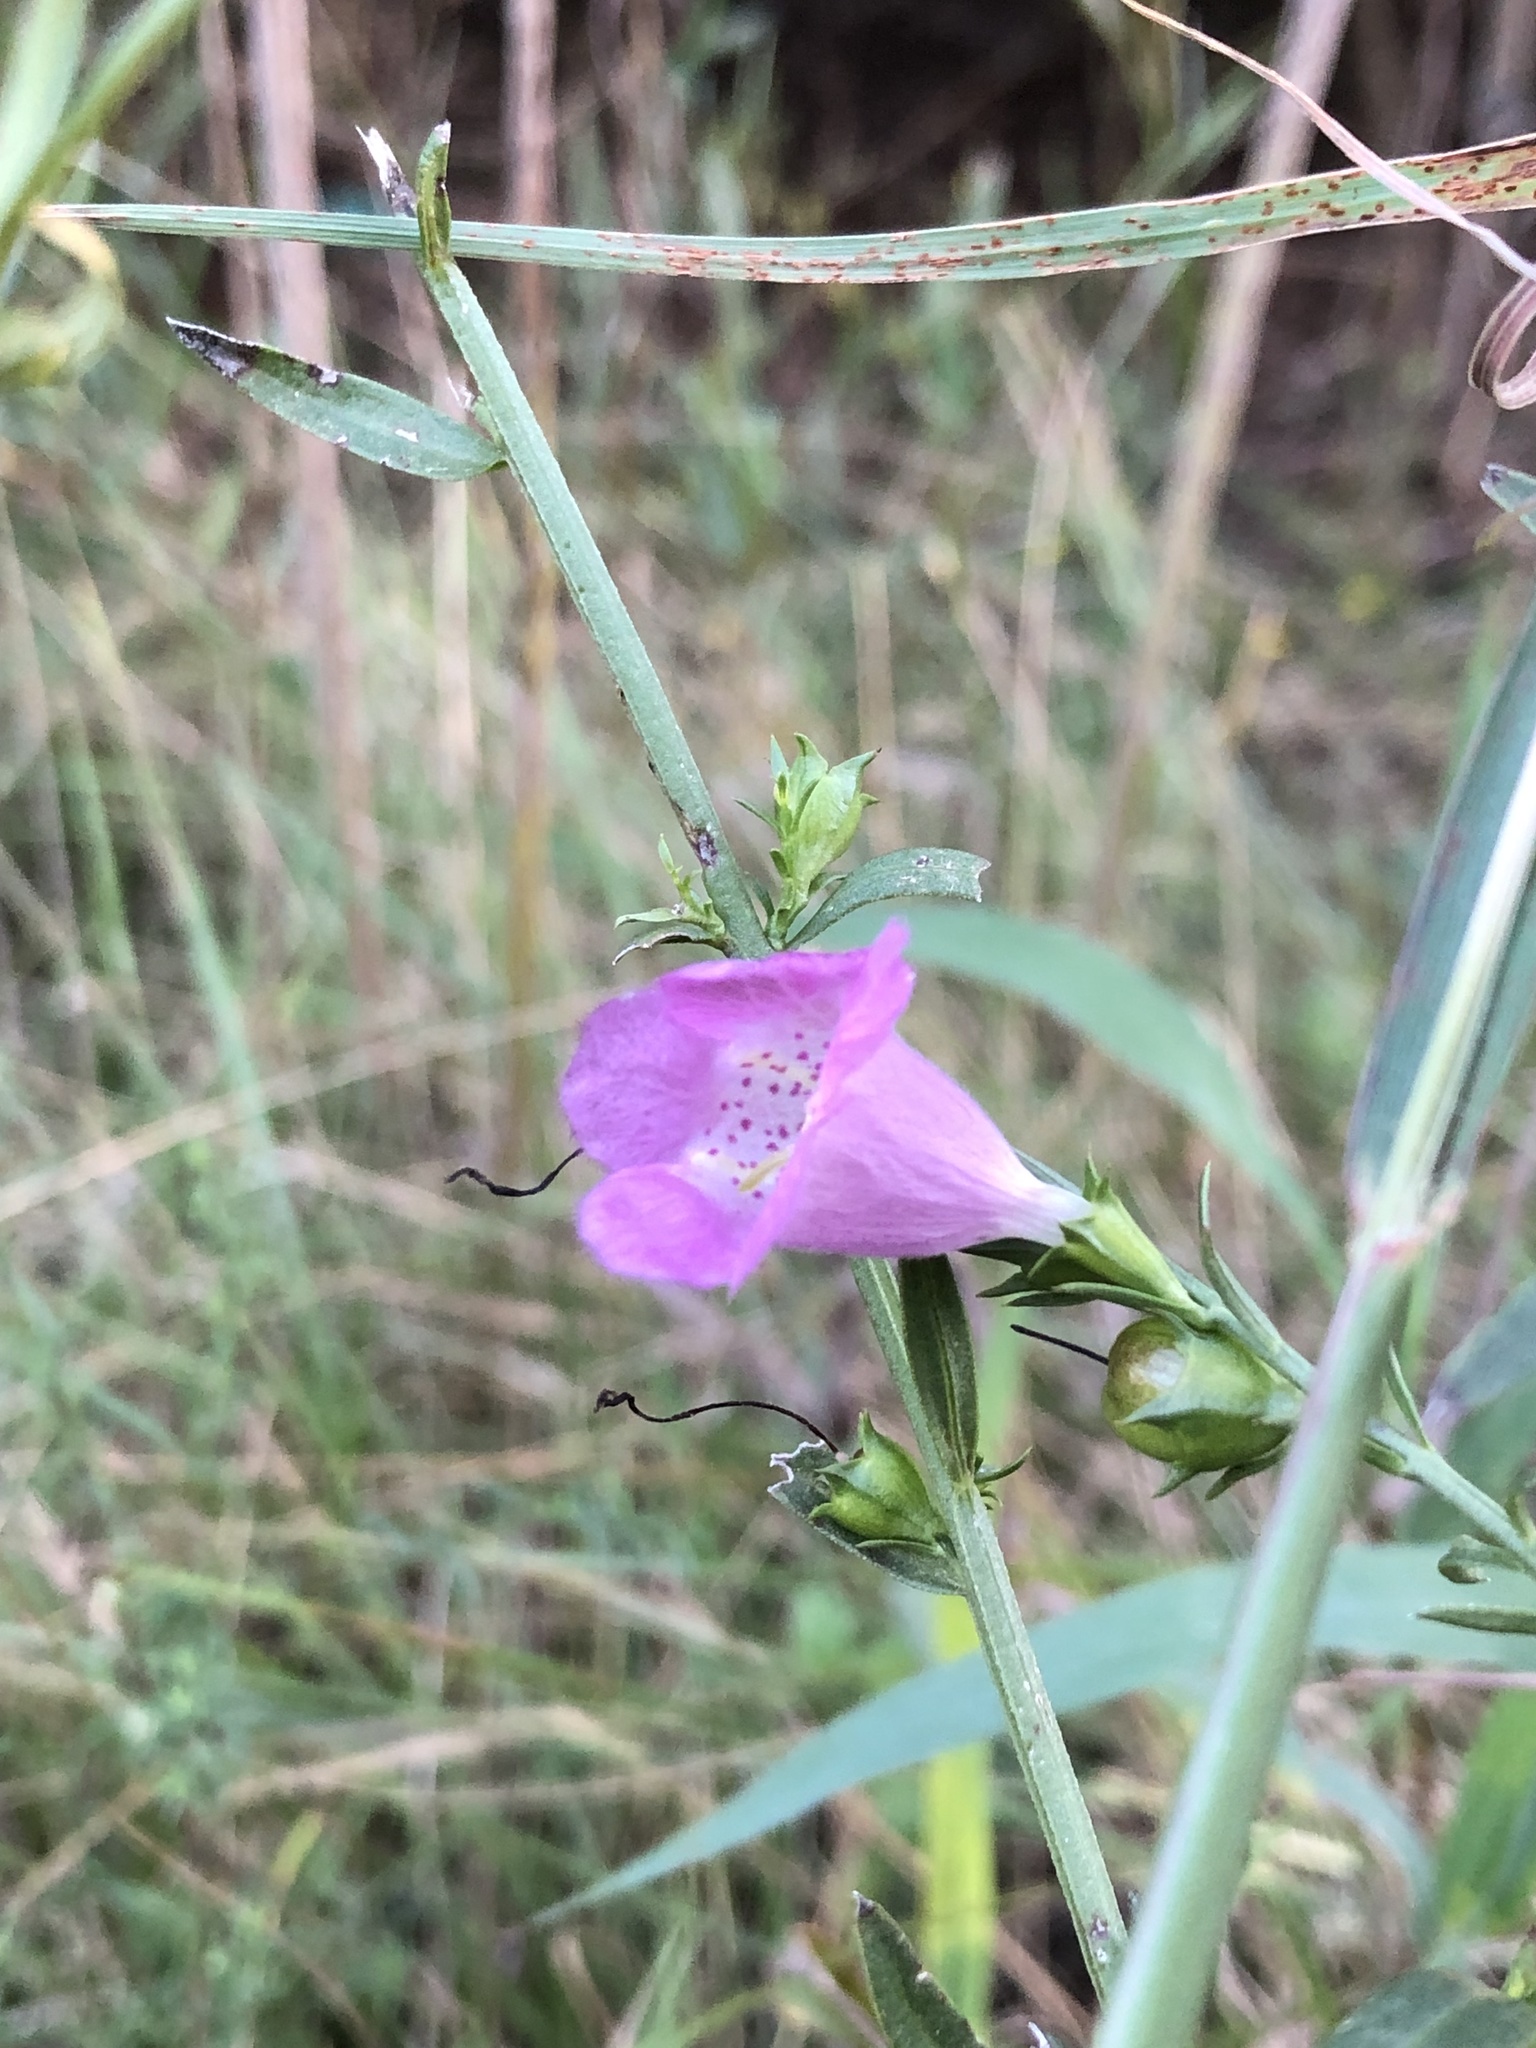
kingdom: Plantae
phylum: Tracheophyta
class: Magnoliopsida
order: Lamiales
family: Orobanchaceae
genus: Agalinis
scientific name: Agalinis heterophylla
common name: Prairie agalinis
